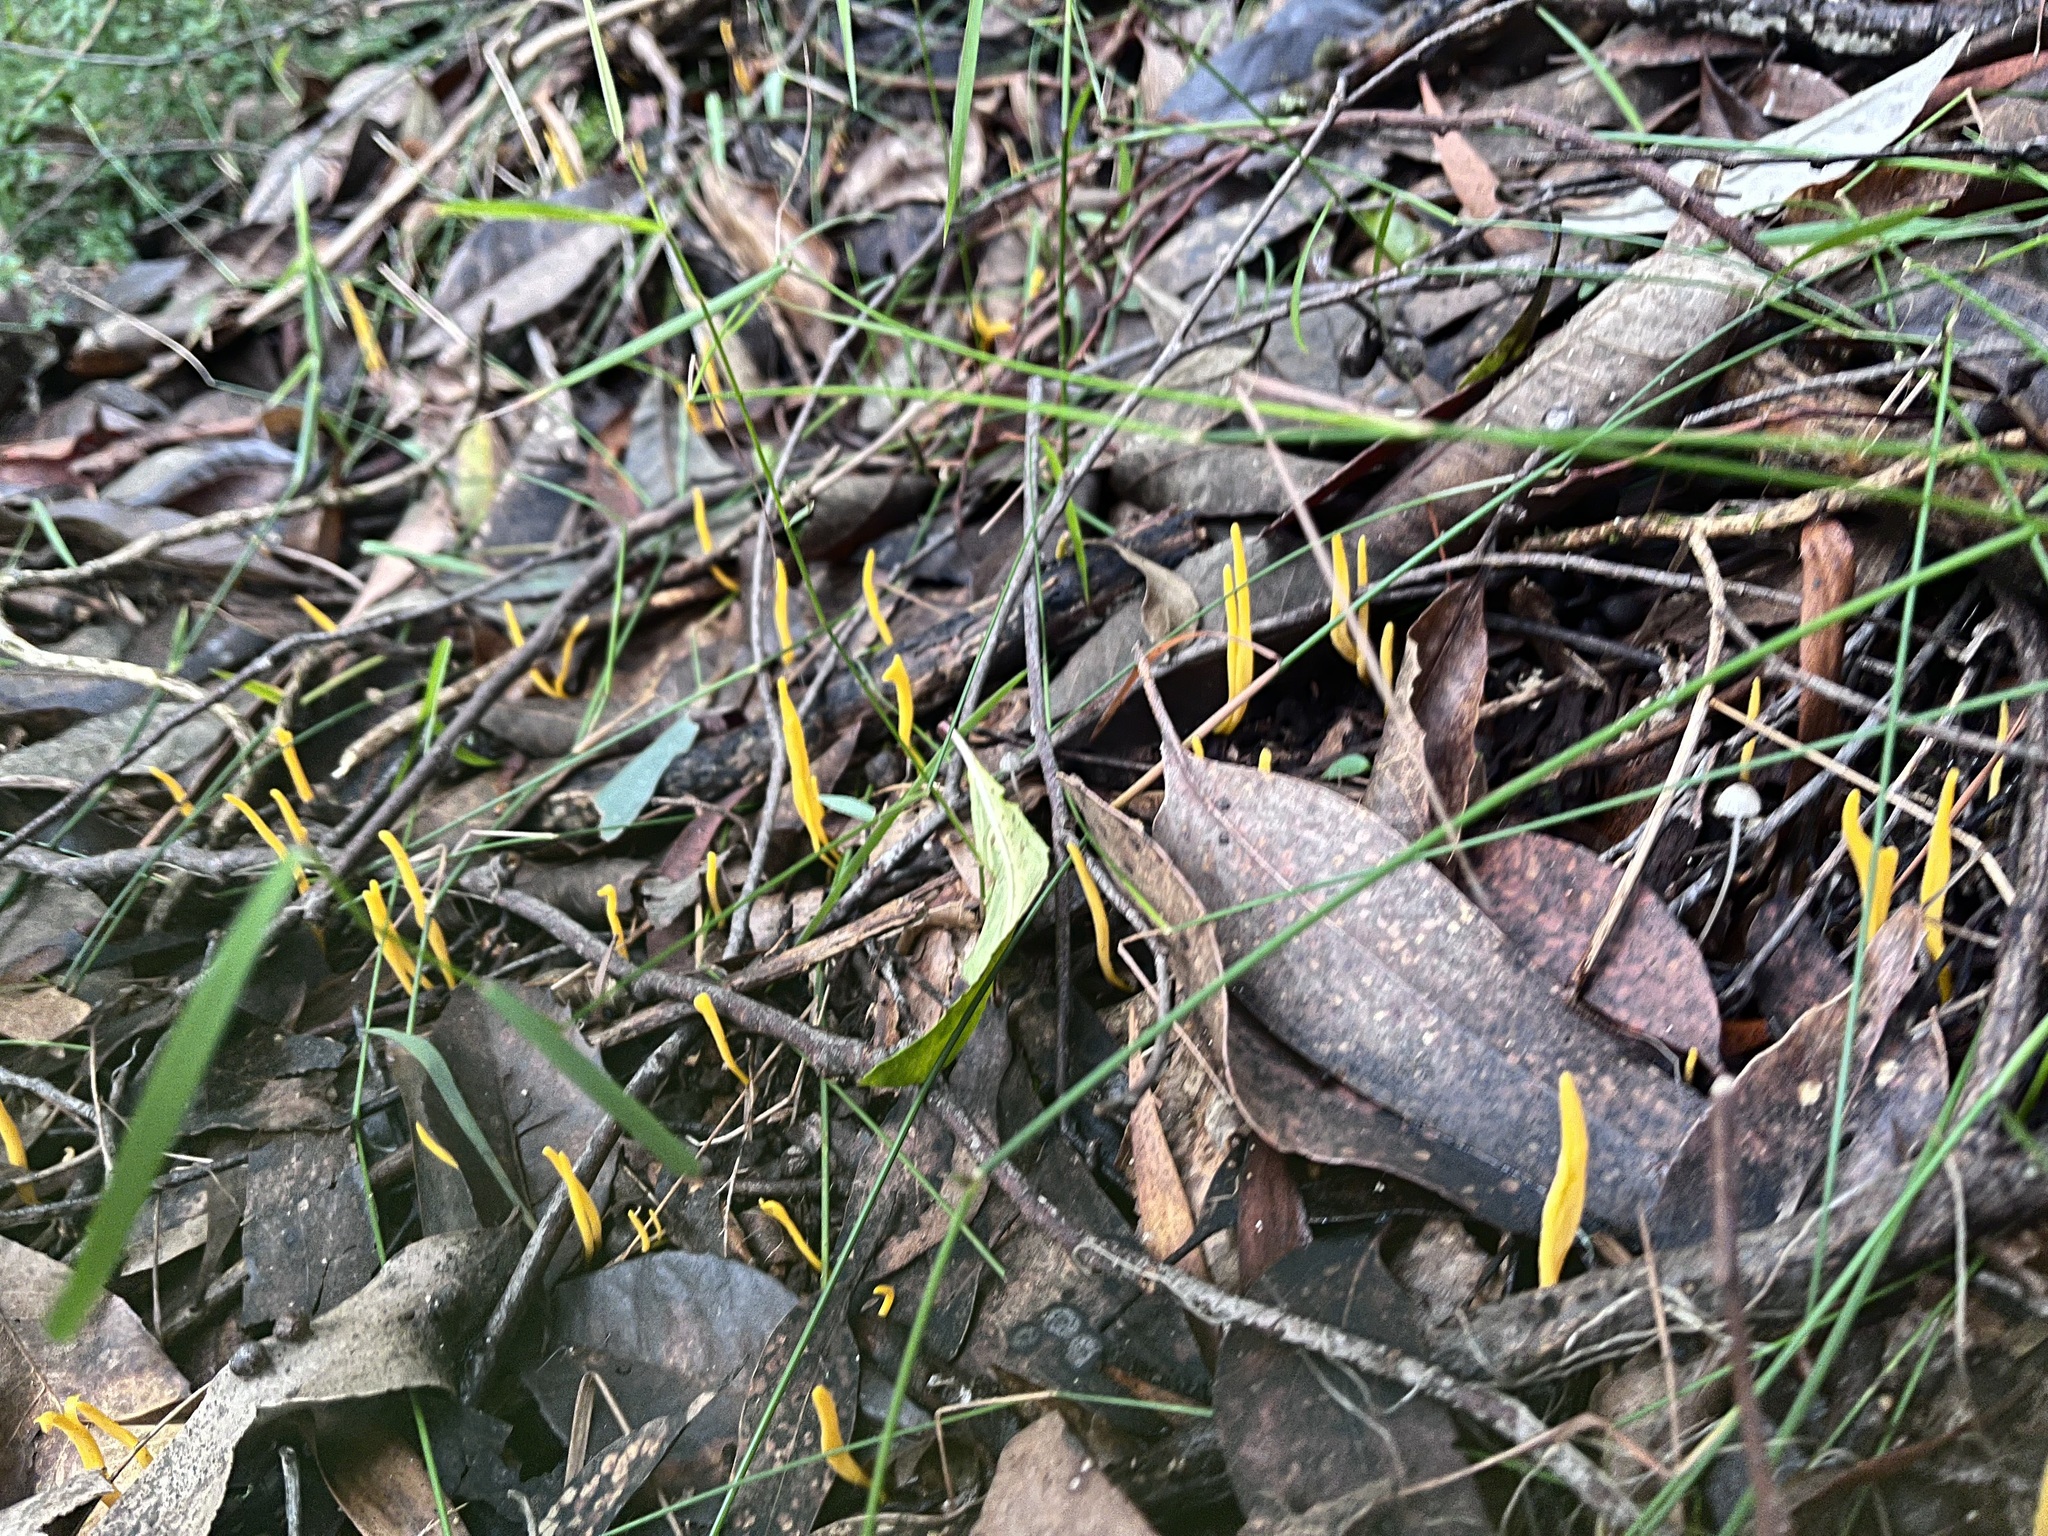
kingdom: Fungi
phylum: Basidiomycota
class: Agaricomycetes
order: Agaricales
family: Clavariaceae
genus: Clavulinopsis
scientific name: Clavulinopsis amoena
